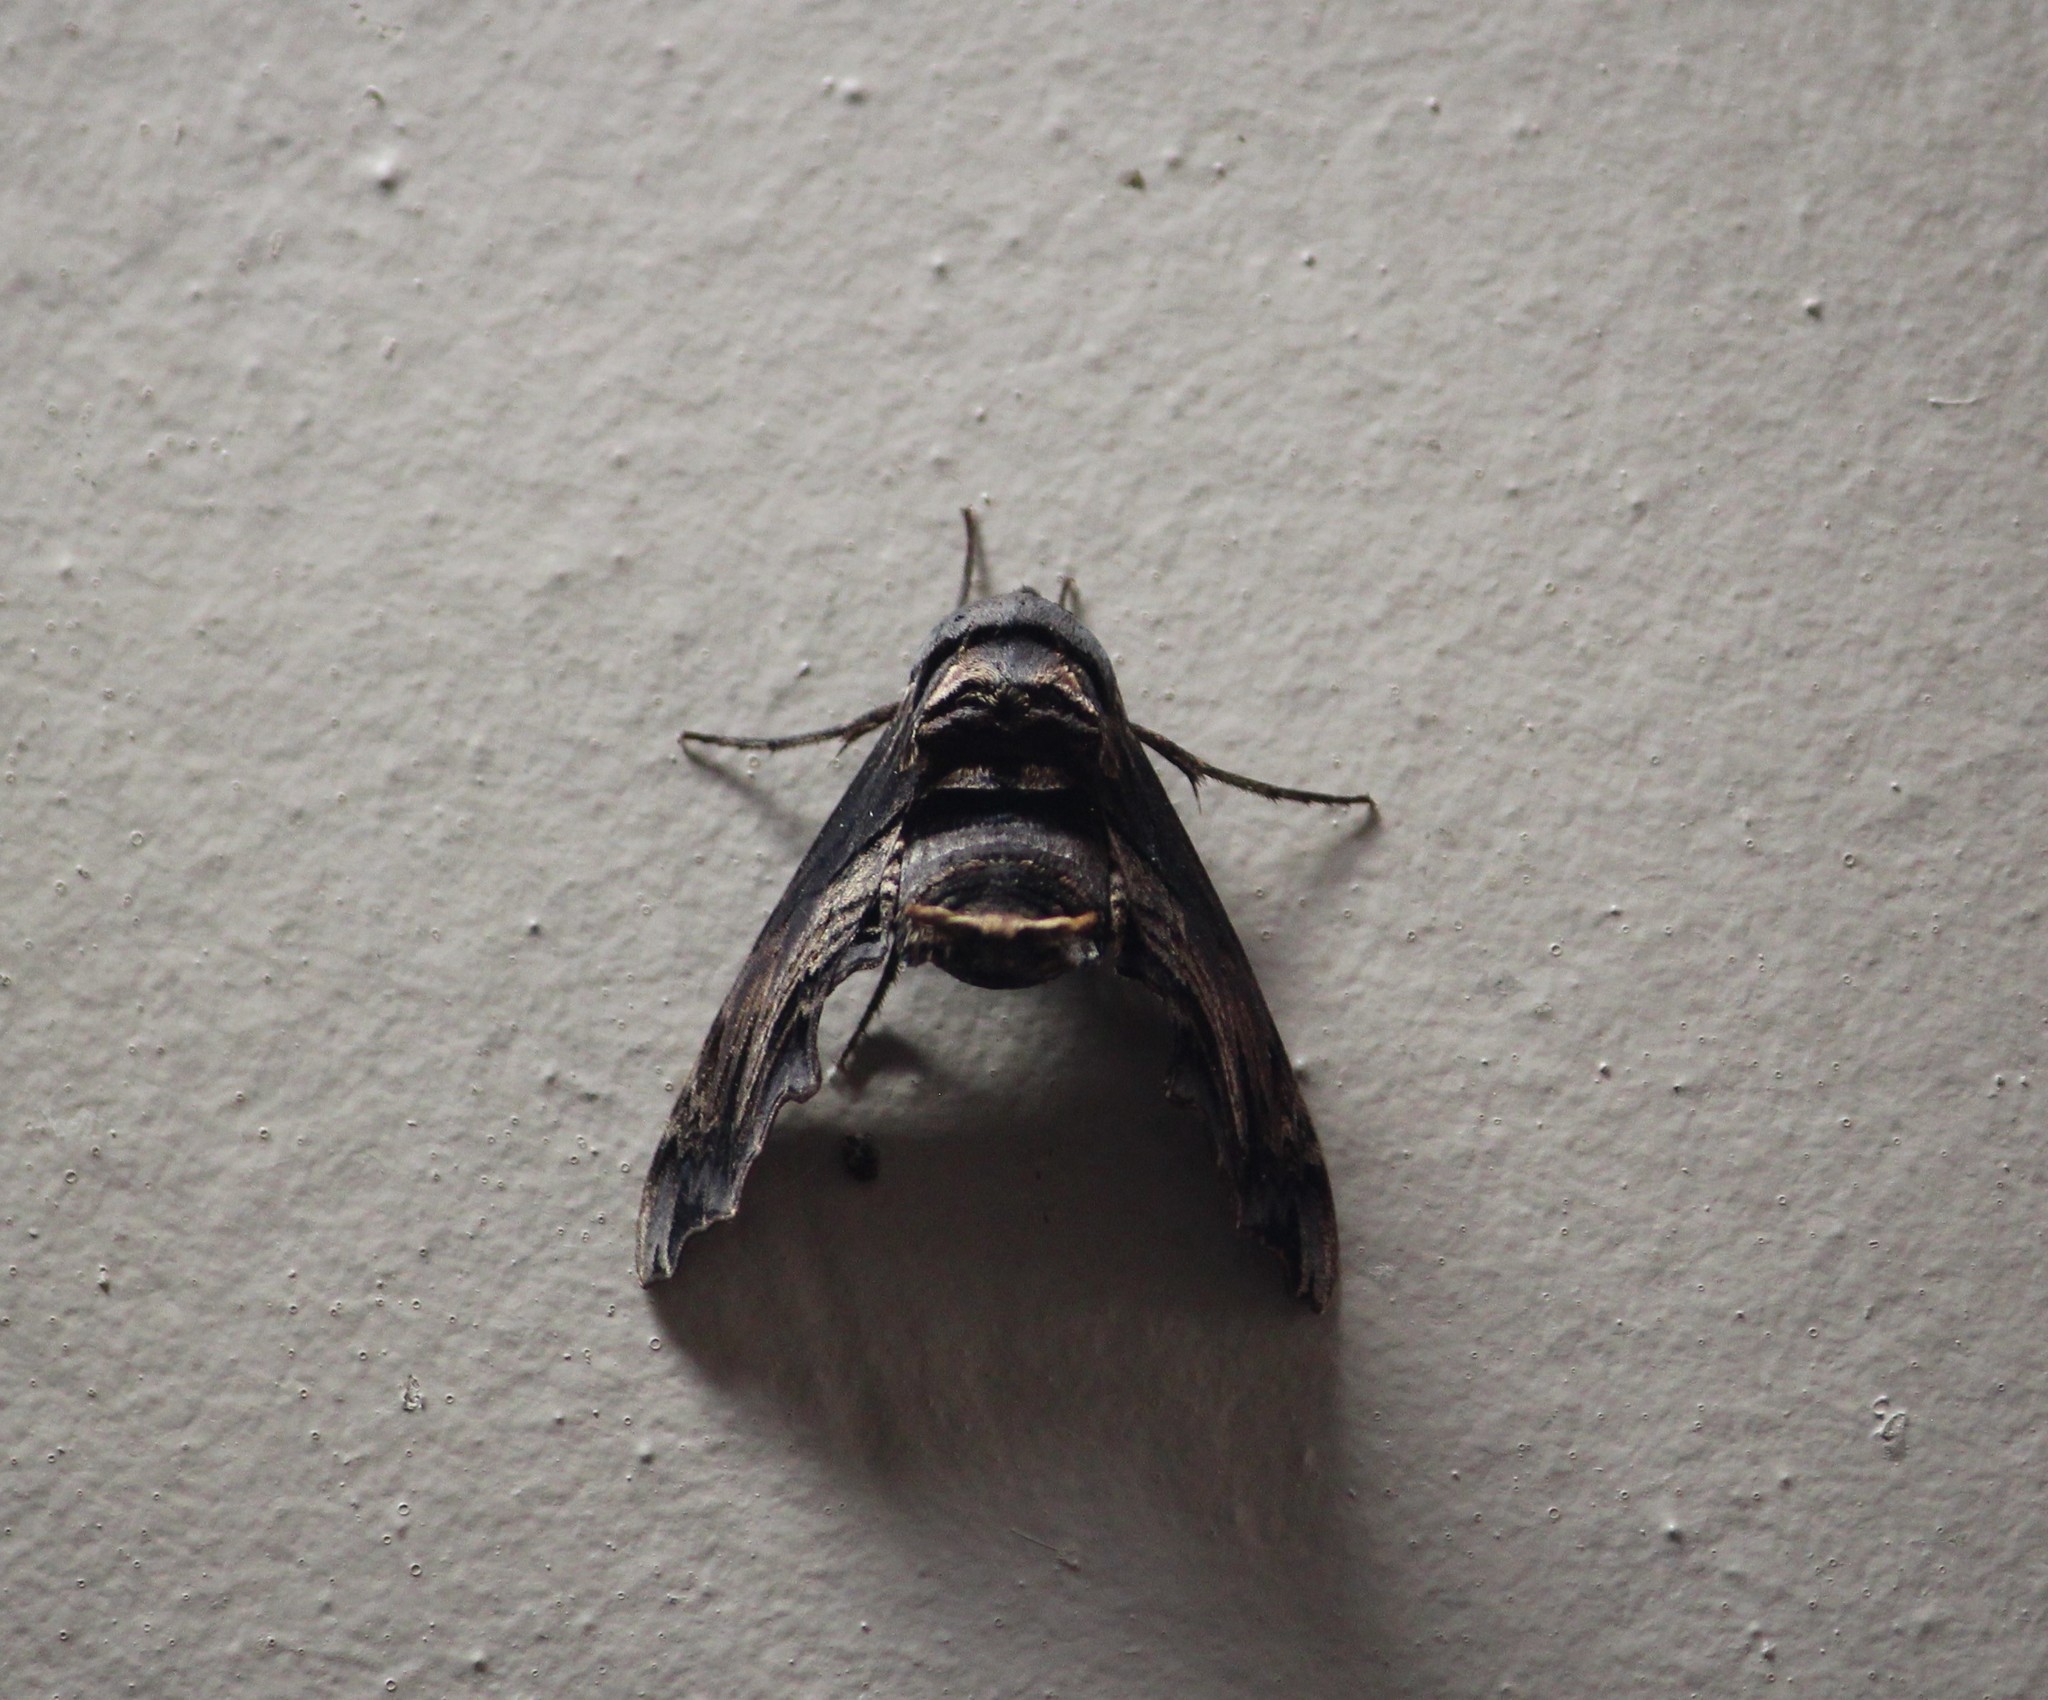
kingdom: Animalia
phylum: Arthropoda
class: Insecta
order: Lepidoptera
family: Sphingidae
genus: Sphecodina
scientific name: Sphecodina abbottii
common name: Abbott's sphinx
